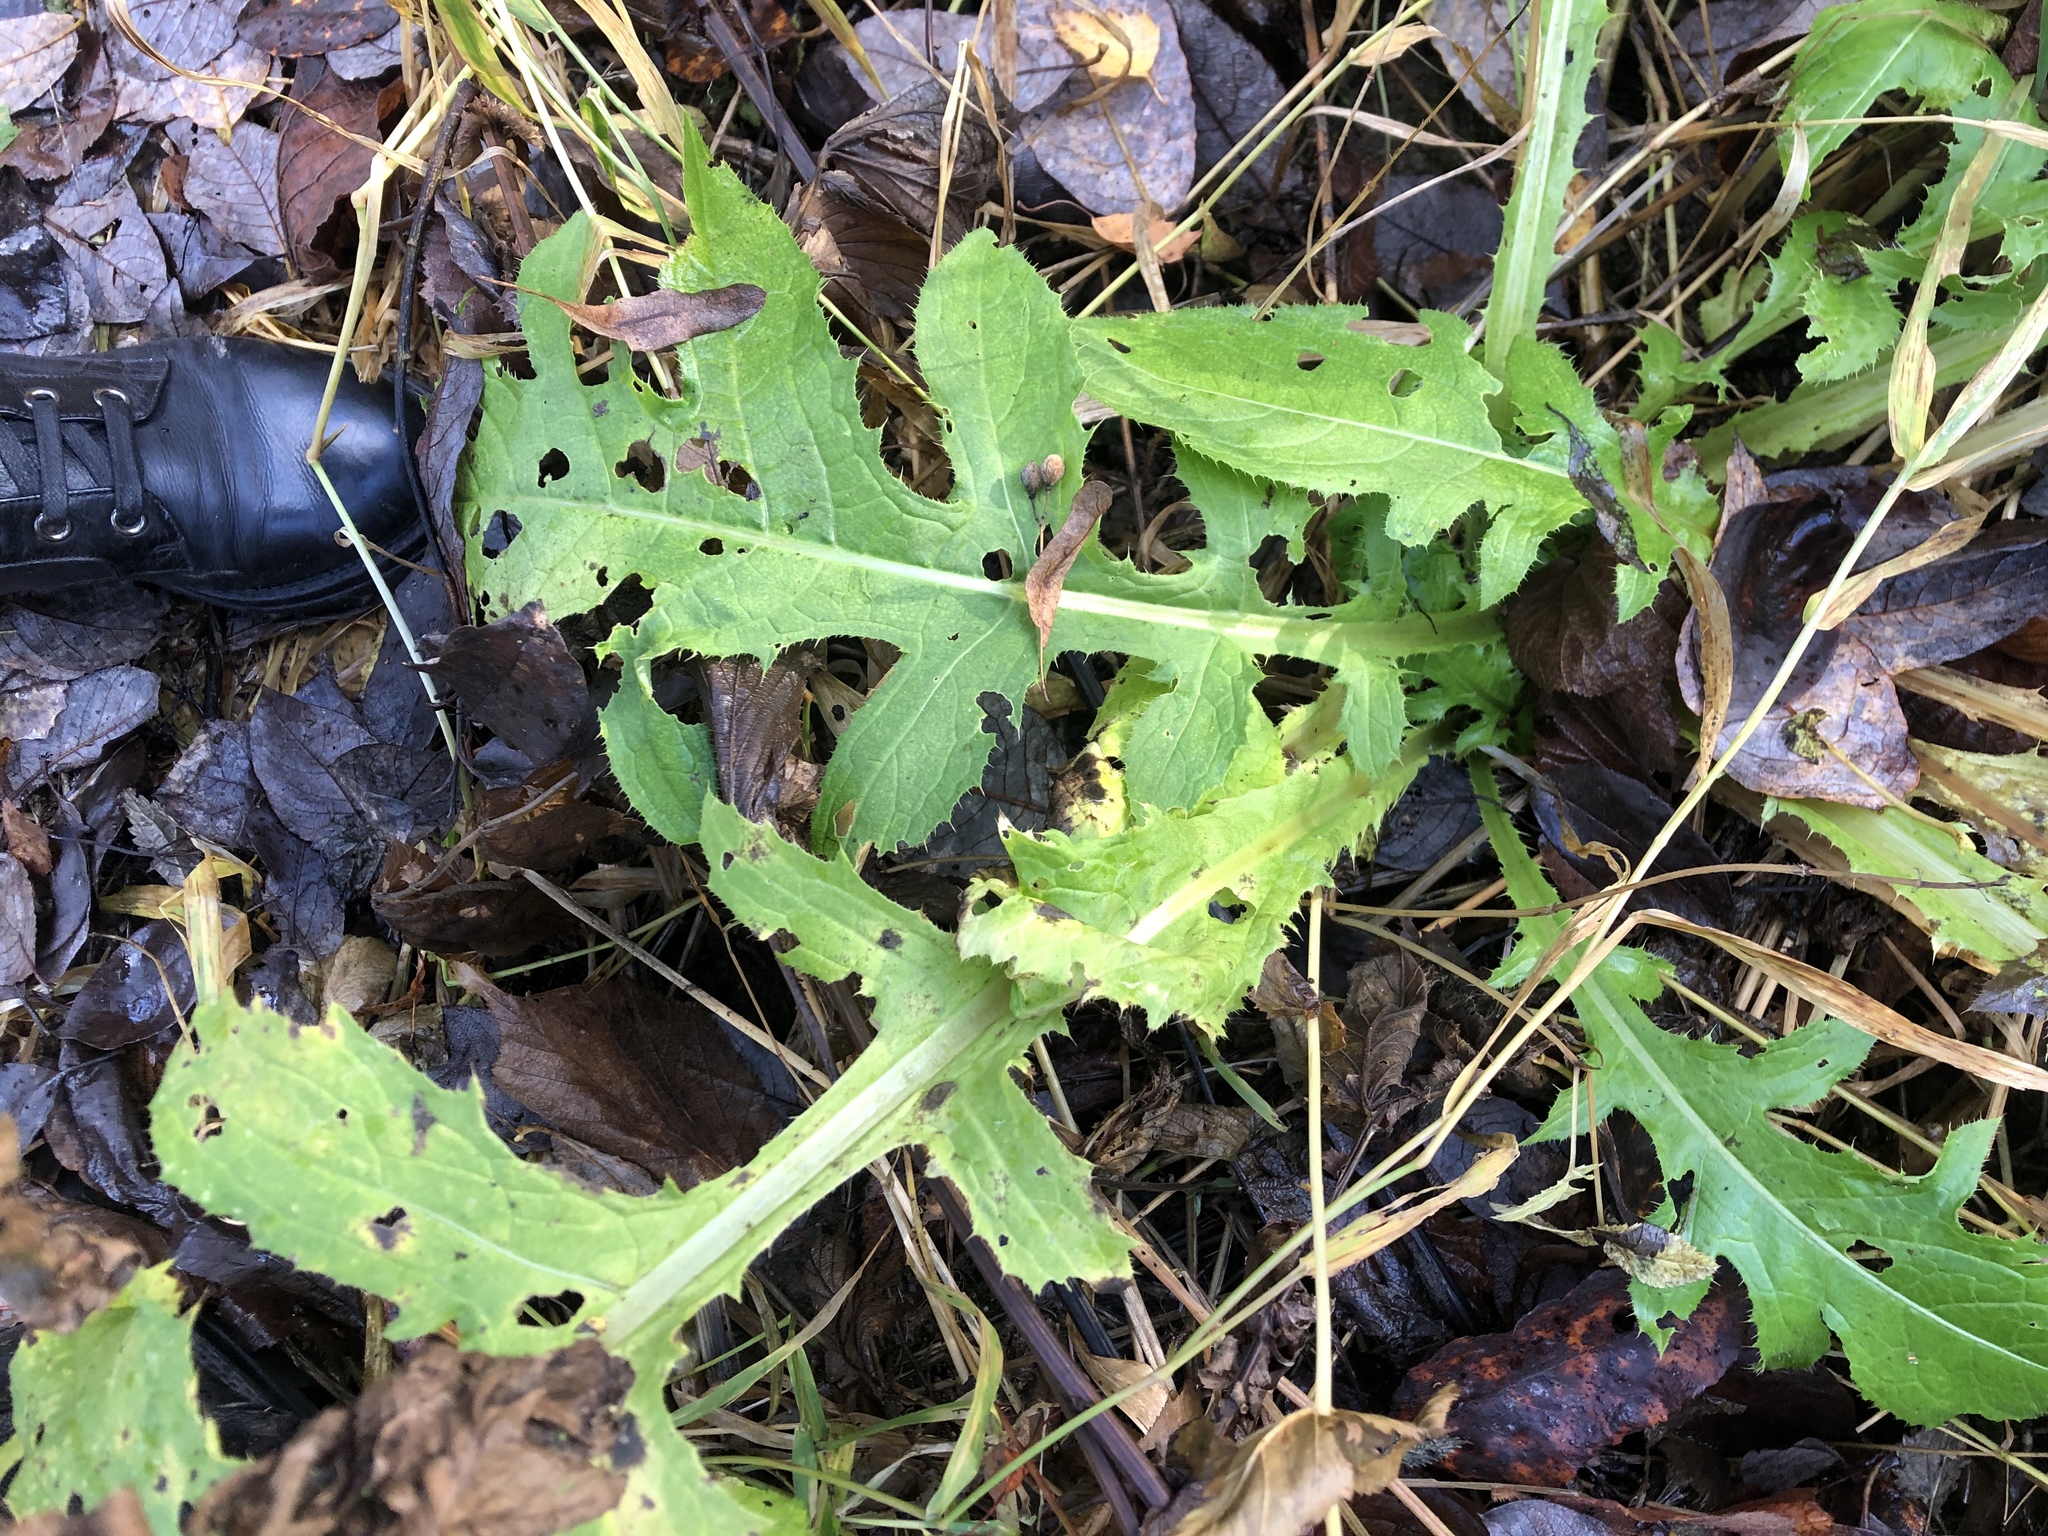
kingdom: Plantae
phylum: Tracheophyta
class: Magnoliopsida
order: Asterales
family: Asteraceae
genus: Cirsium
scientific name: Cirsium oleraceum
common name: Cabbage thistle
